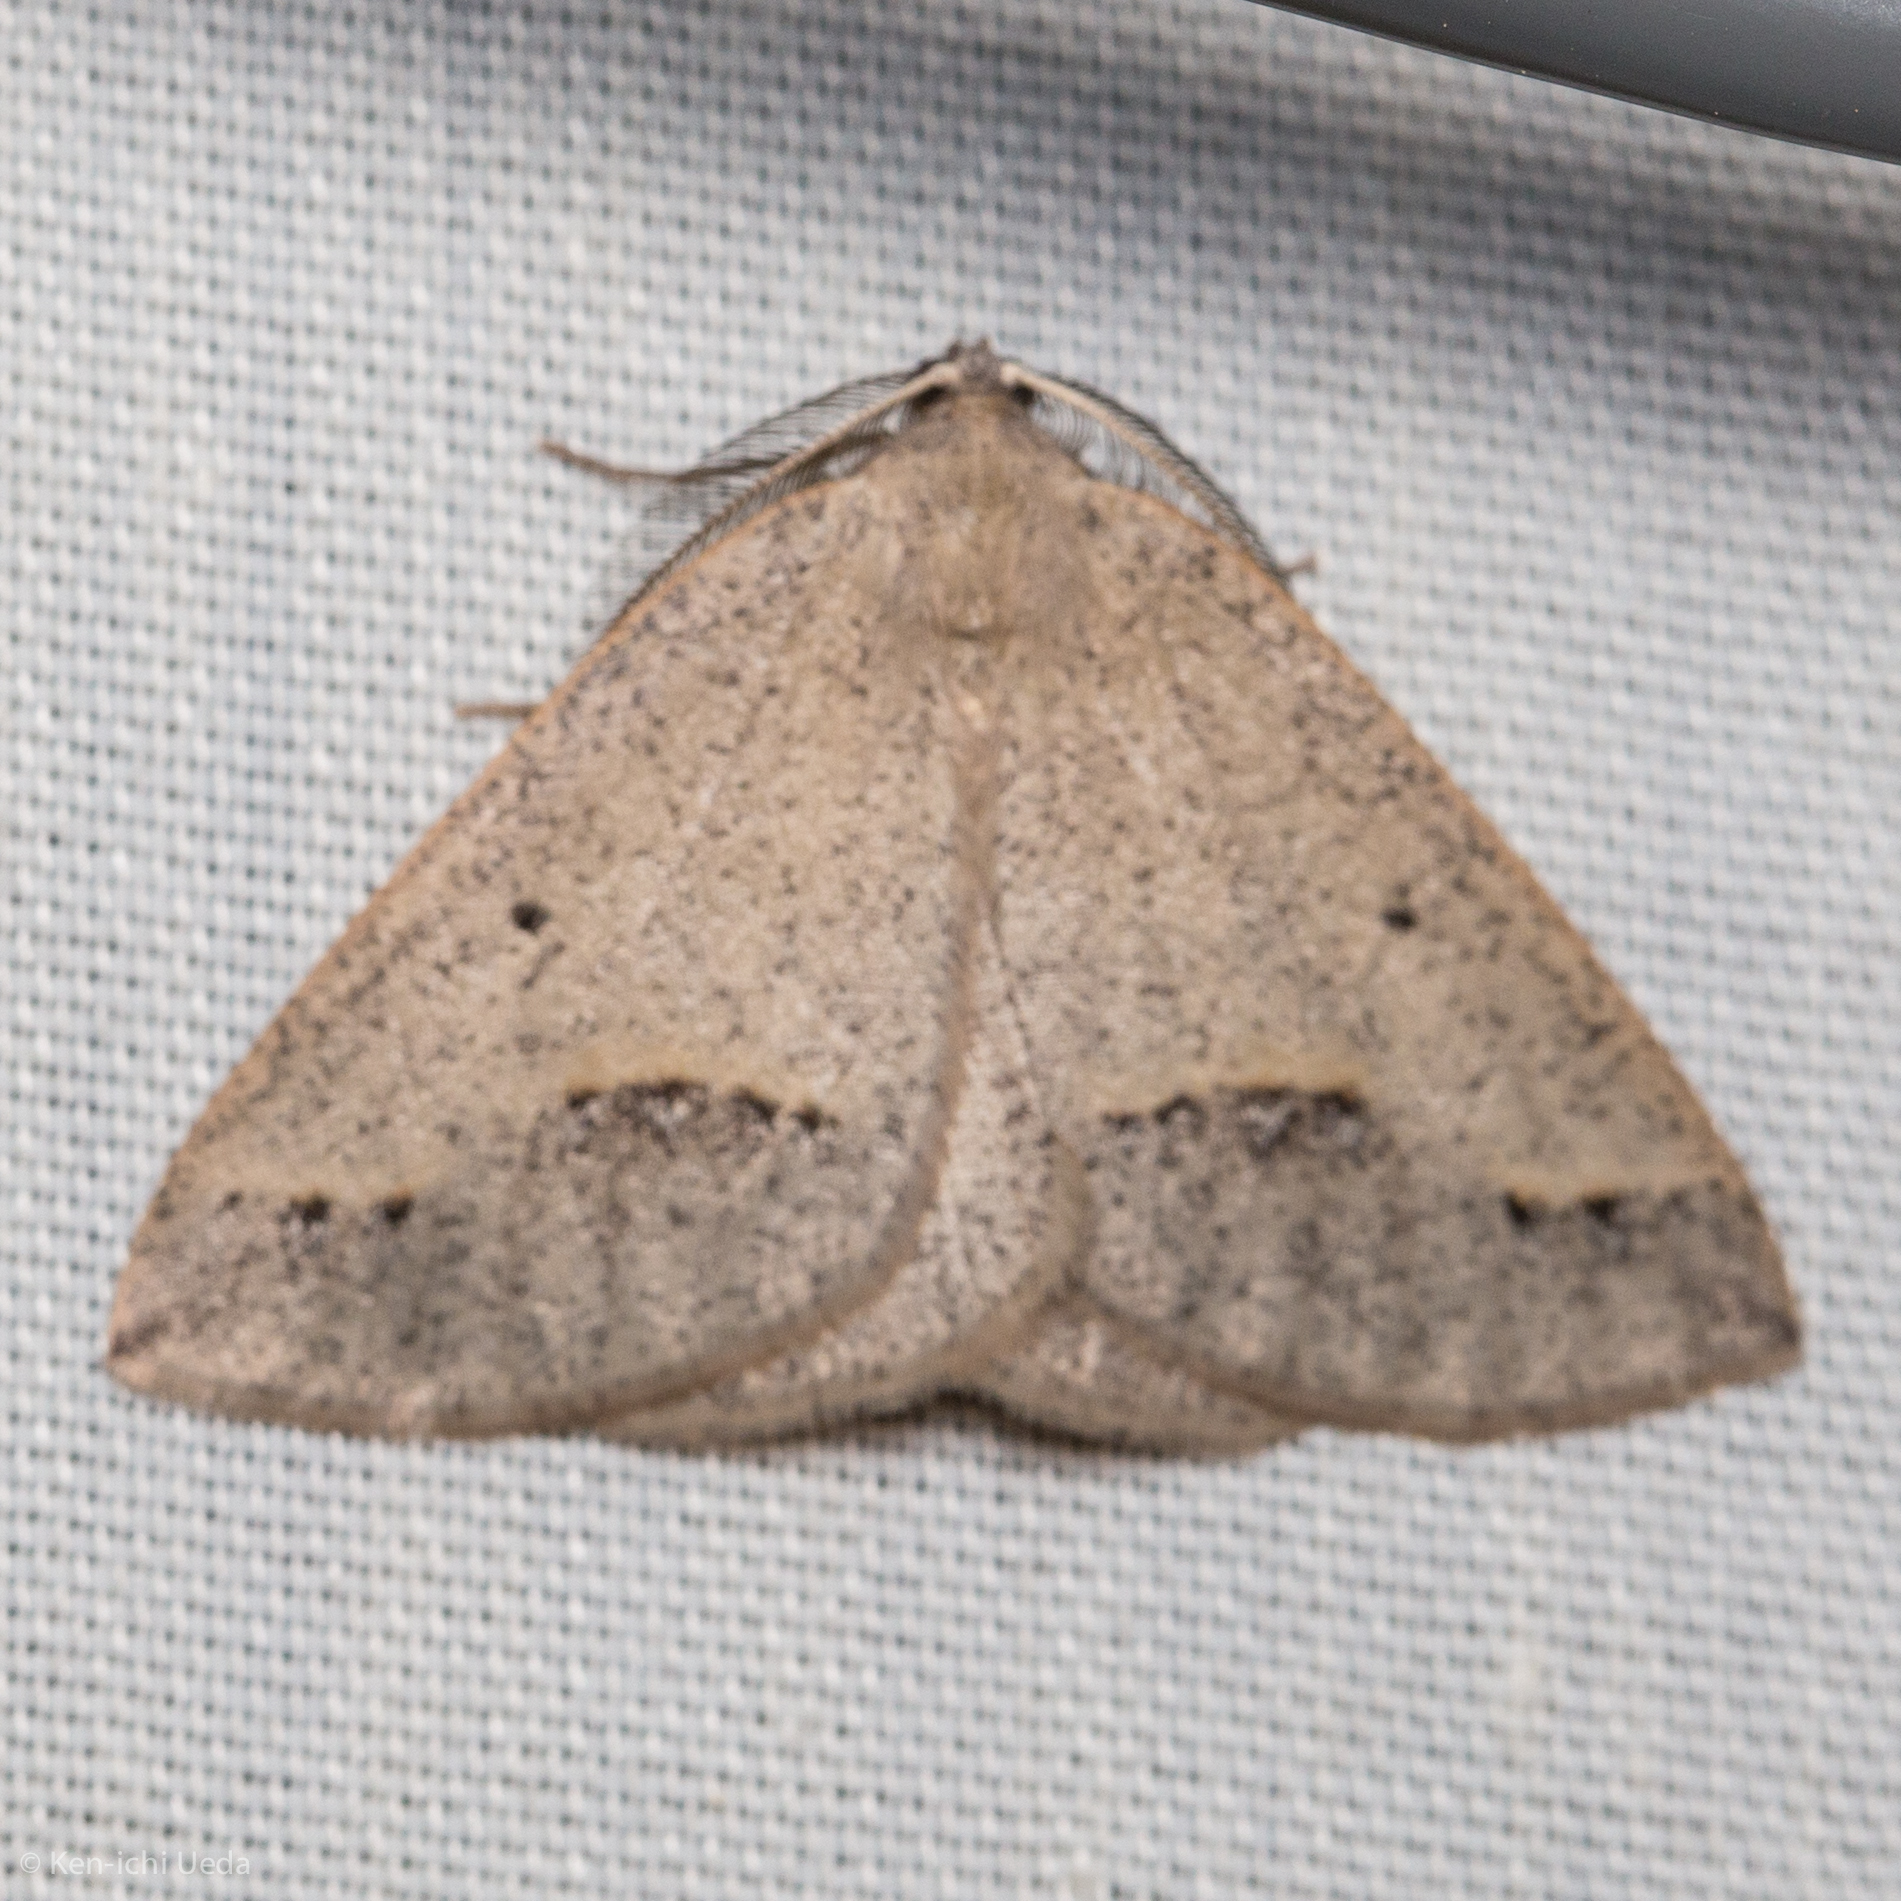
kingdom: Animalia
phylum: Arthropoda
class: Insecta
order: Lepidoptera
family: Geometridae
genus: Drepanulatrix
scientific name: Drepanulatrix unicalcararia
